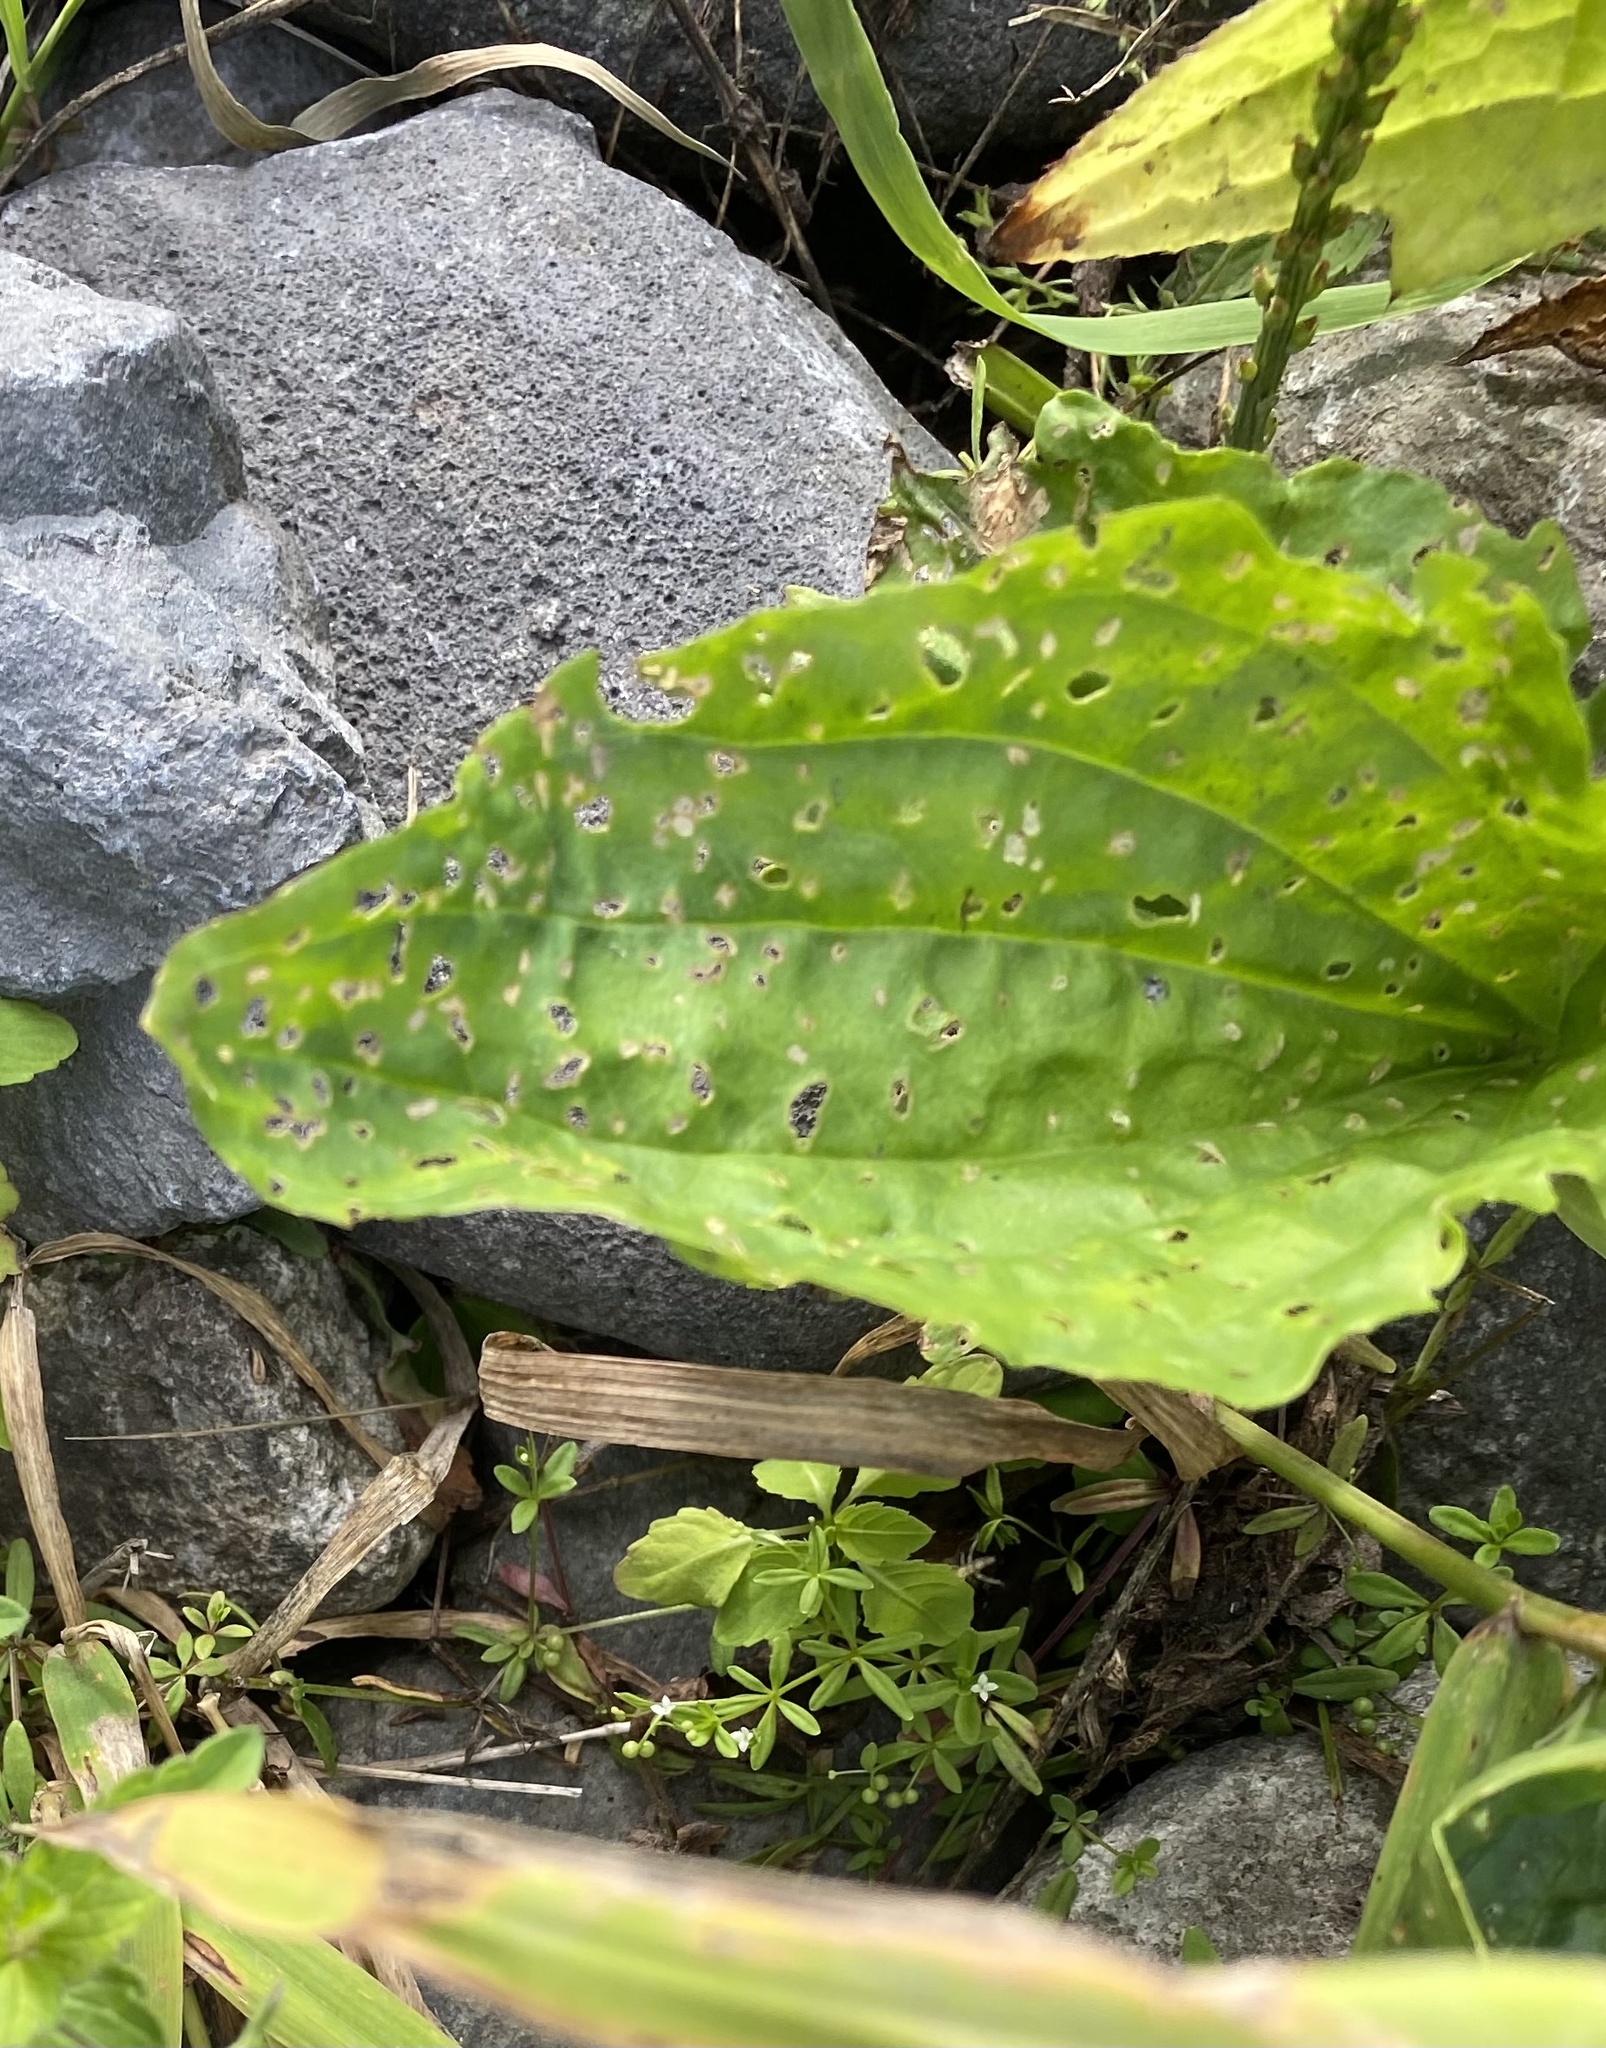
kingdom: Plantae
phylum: Tracheophyta
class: Magnoliopsida
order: Lamiales
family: Plantaginaceae
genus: Plantago
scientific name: Plantago major
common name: Common plantain
